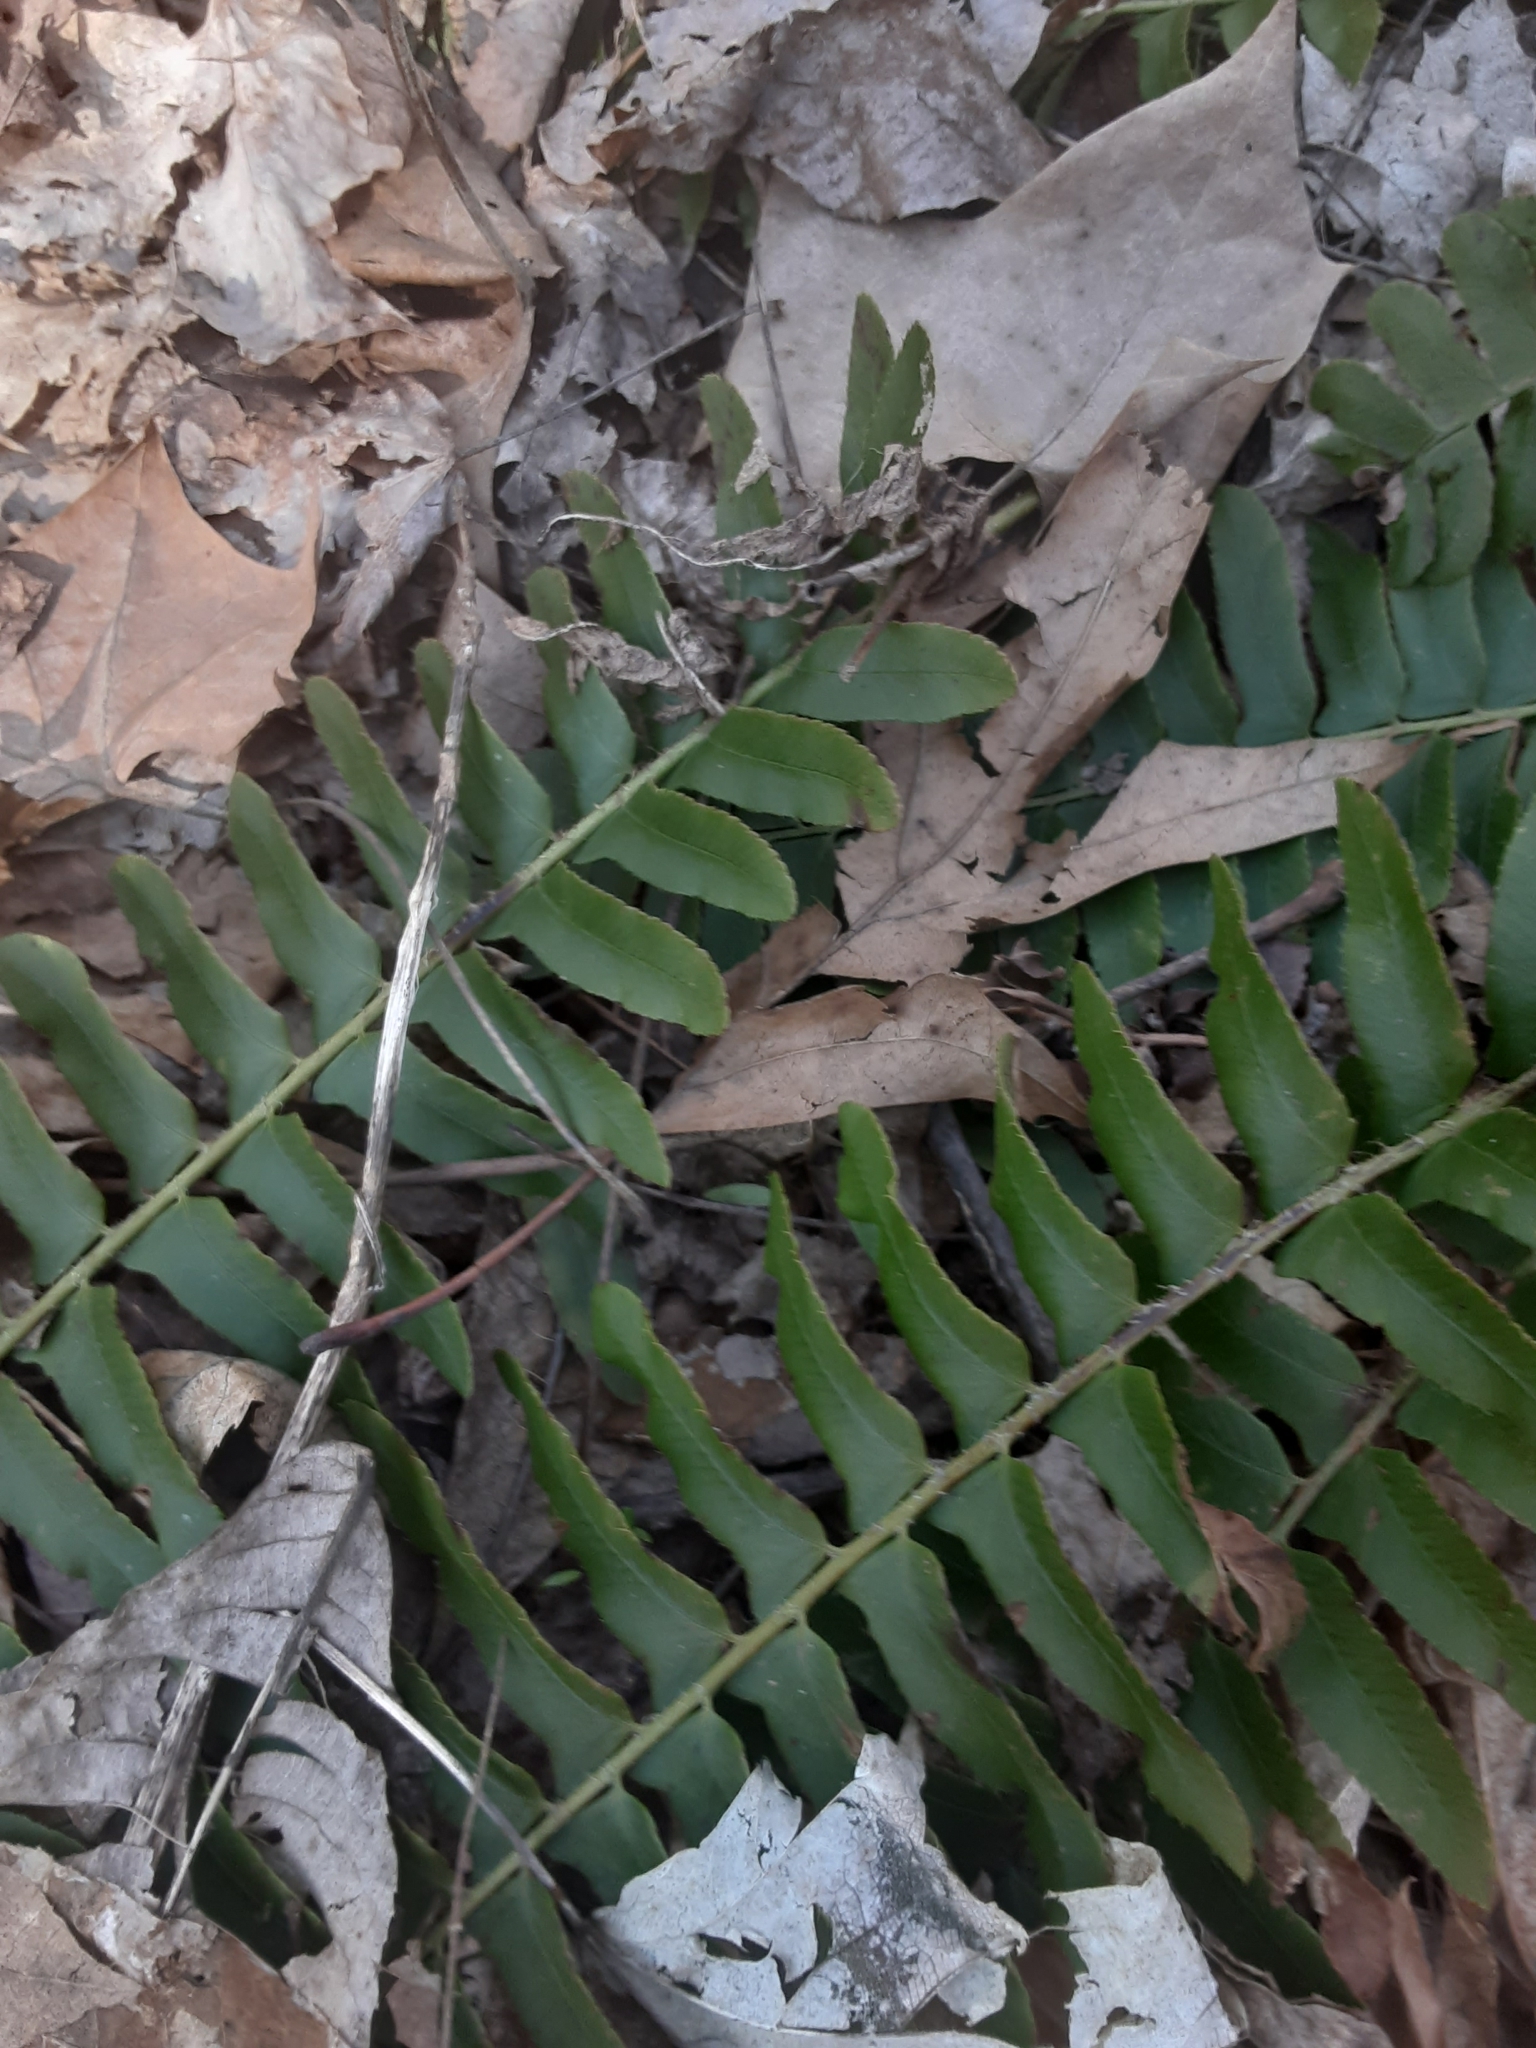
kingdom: Plantae
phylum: Tracheophyta
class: Polypodiopsida
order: Polypodiales
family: Dryopteridaceae
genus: Polystichum
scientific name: Polystichum acrostichoides
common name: Christmas fern
